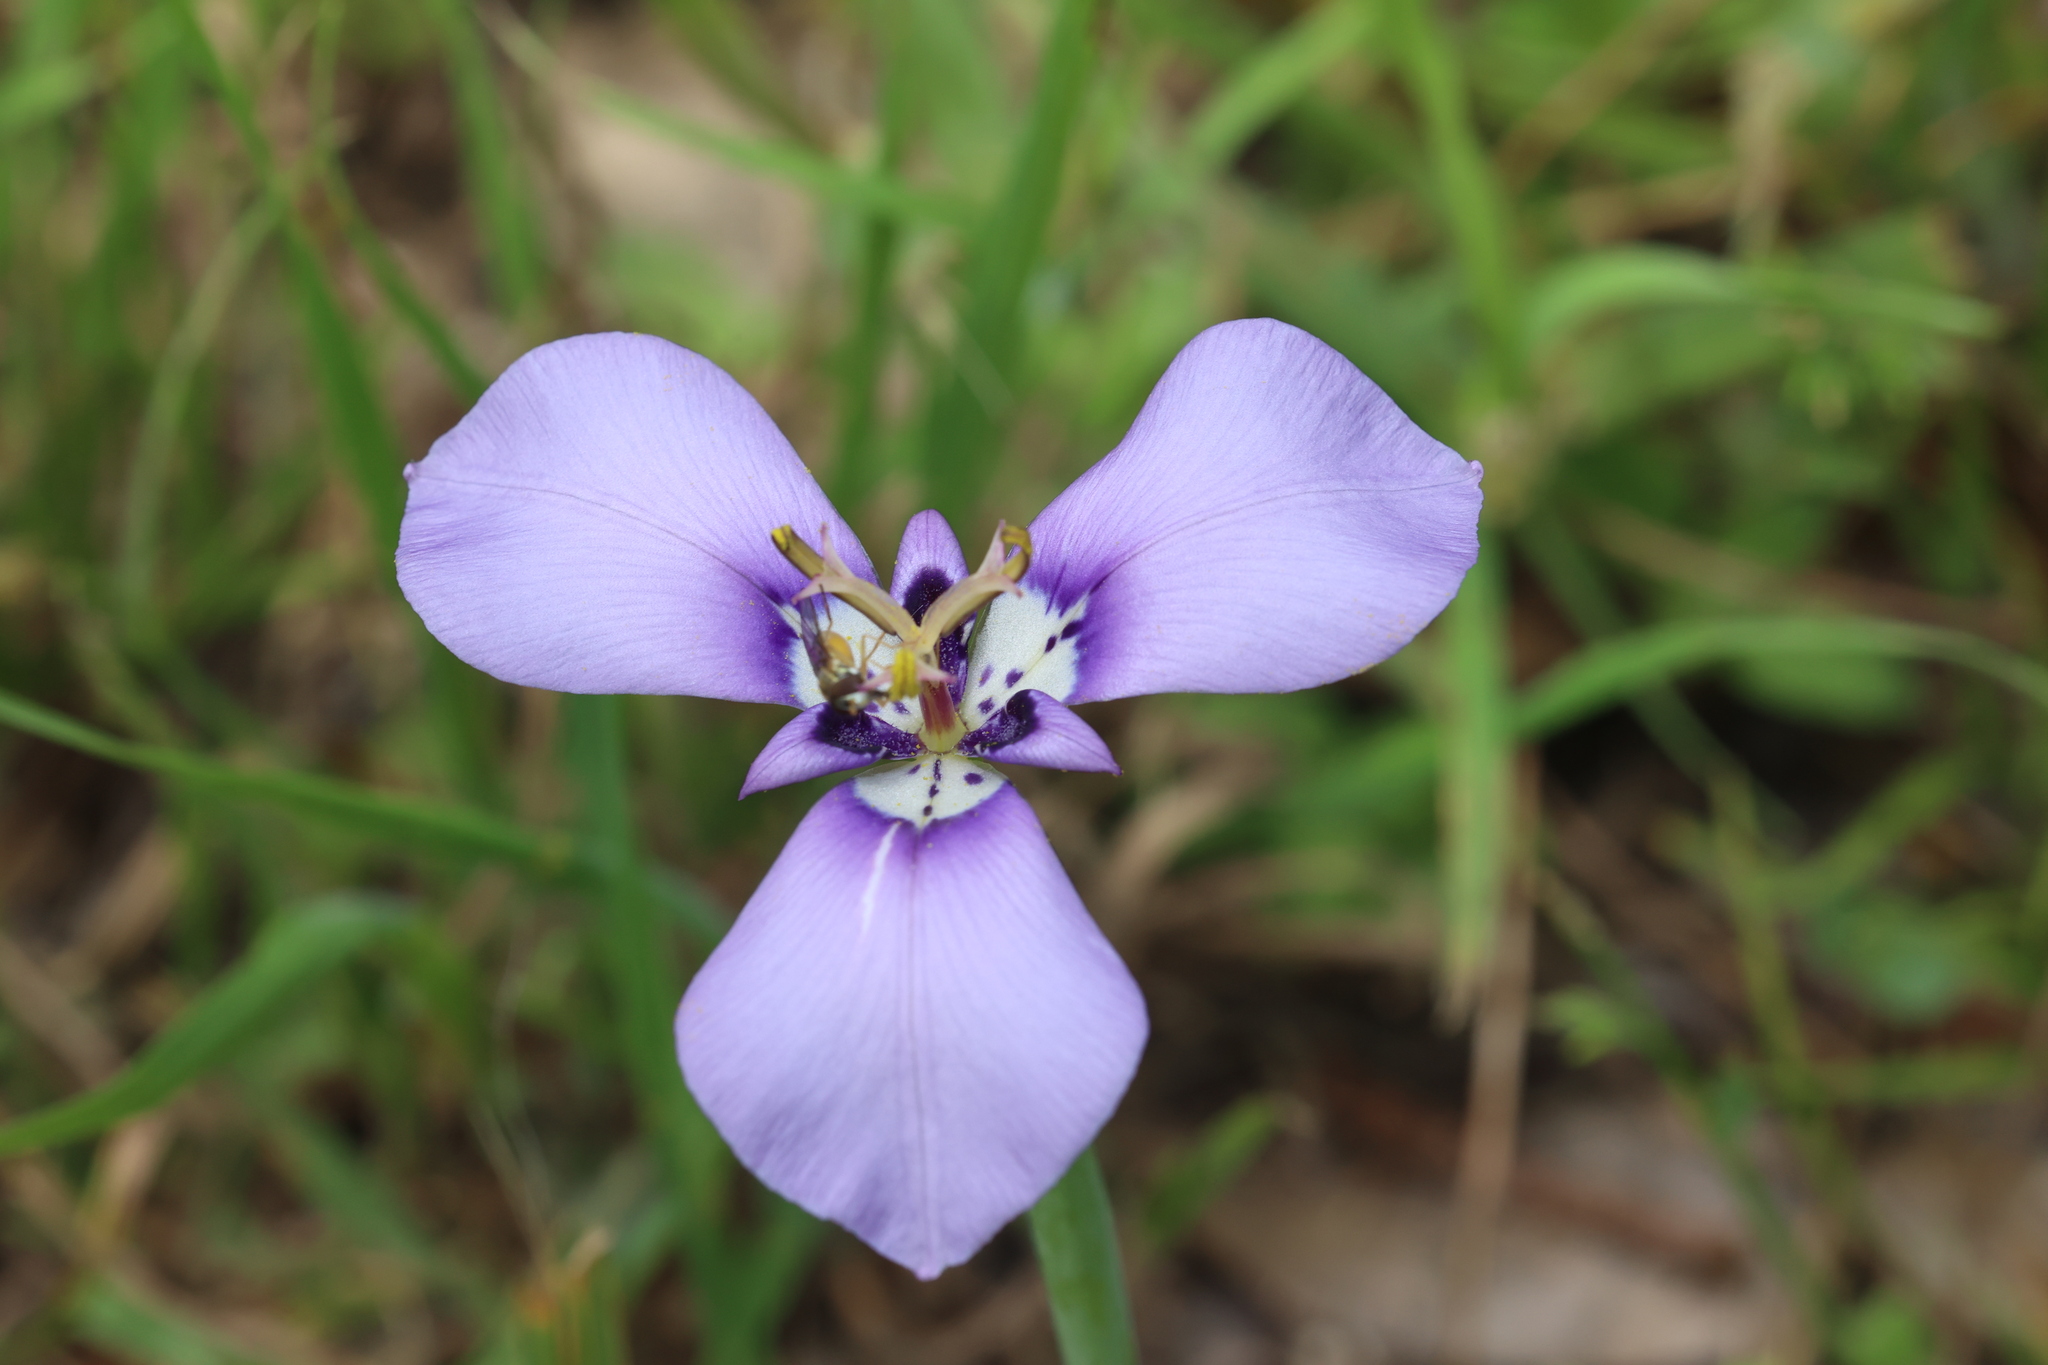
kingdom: Plantae
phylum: Tracheophyta
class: Liliopsida
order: Asparagales
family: Iridaceae
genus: Herbertia
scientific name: Herbertia lahue
